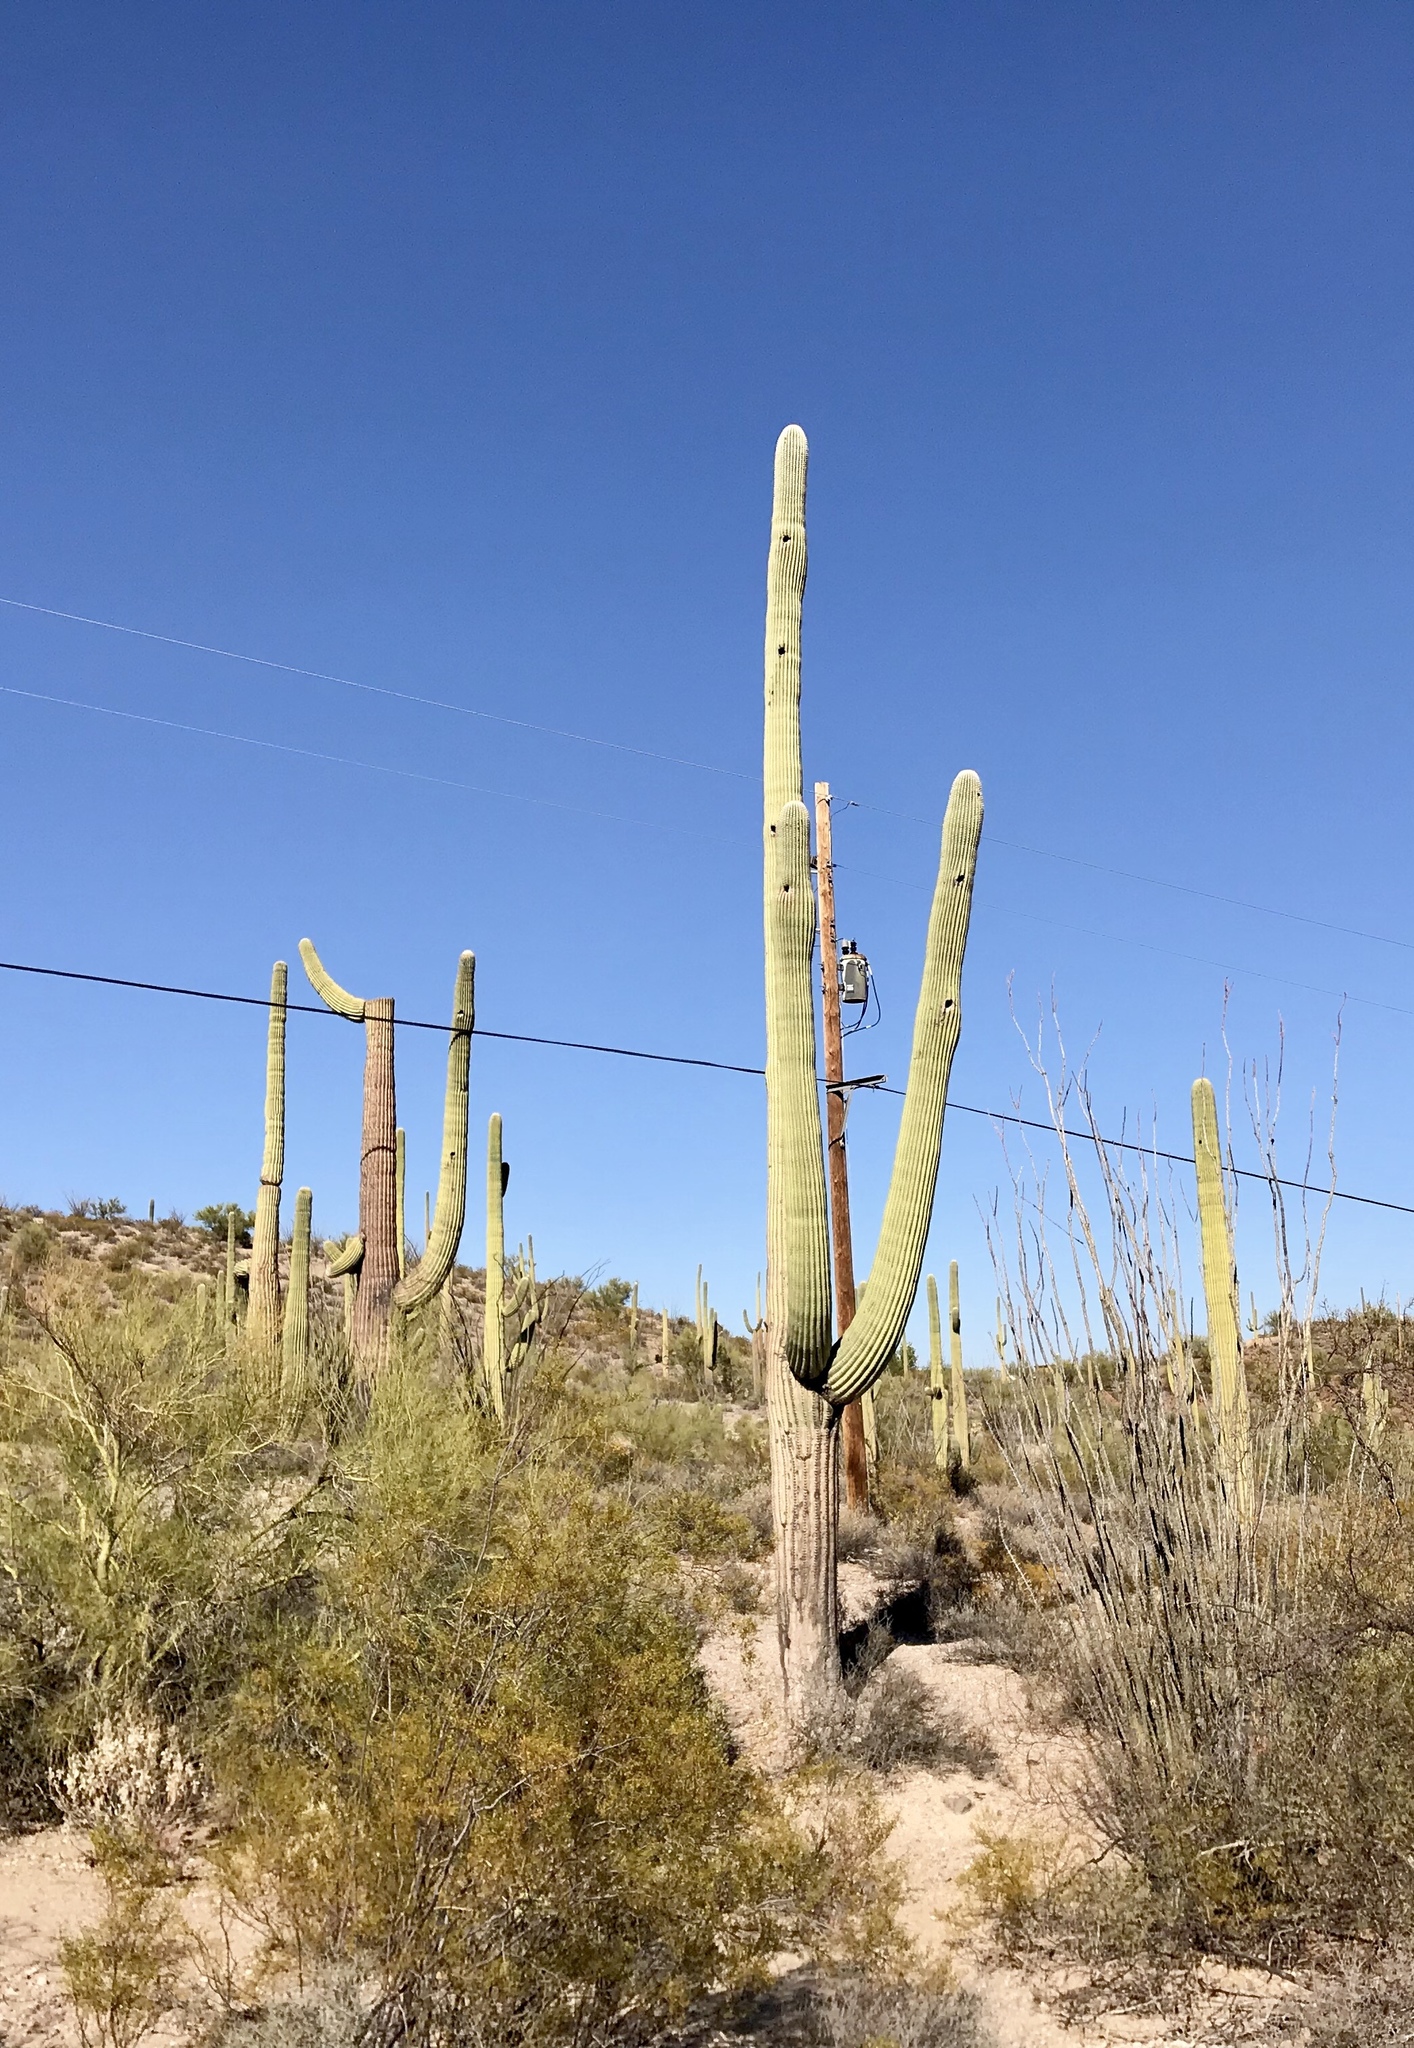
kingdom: Plantae
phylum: Tracheophyta
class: Magnoliopsida
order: Caryophyllales
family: Cactaceae
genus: Carnegiea
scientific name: Carnegiea gigantea
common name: Saguaro
